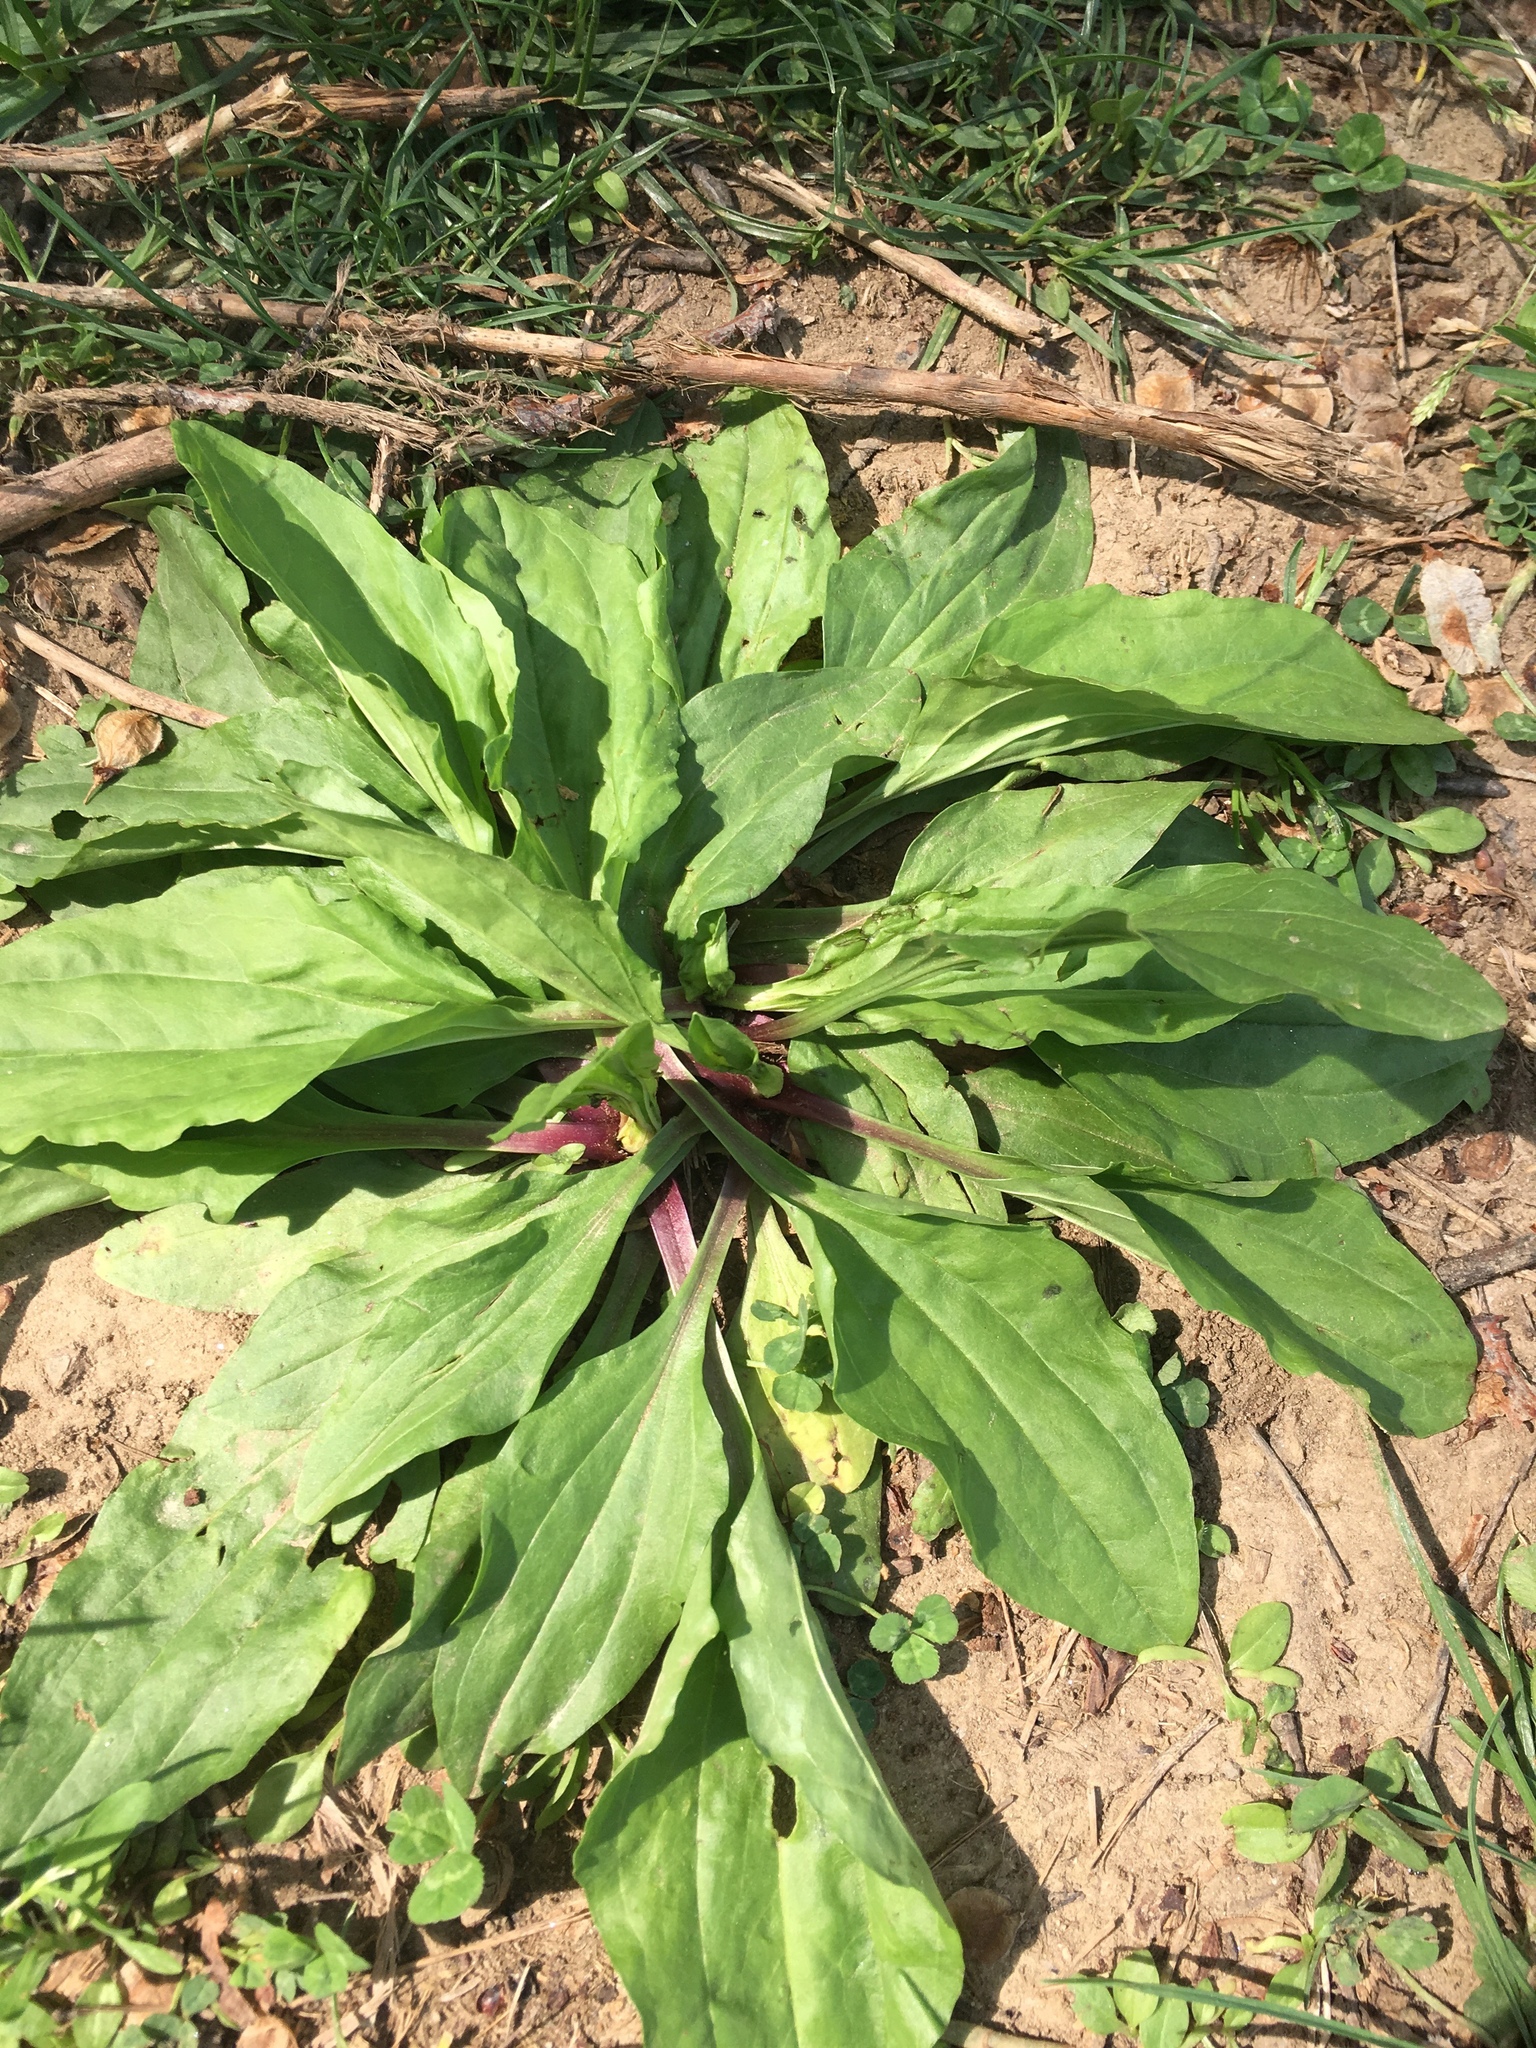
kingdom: Plantae
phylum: Tracheophyta
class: Magnoliopsida
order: Lamiales
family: Plantaginaceae
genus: Plantago
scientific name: Plantago rugelii
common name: American plantain
